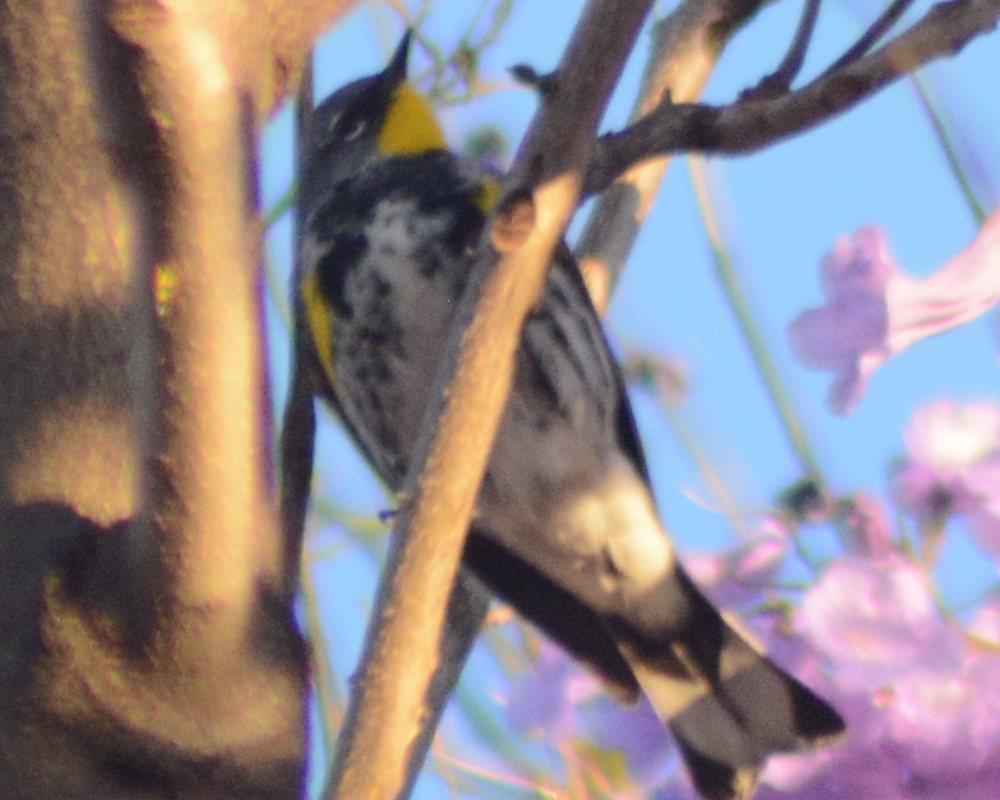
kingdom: Animalia
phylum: Chordata
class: Aves
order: Passeriformes
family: Parulidae
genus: Setophaga
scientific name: Setophaga auduboni
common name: Audubon's warbler
